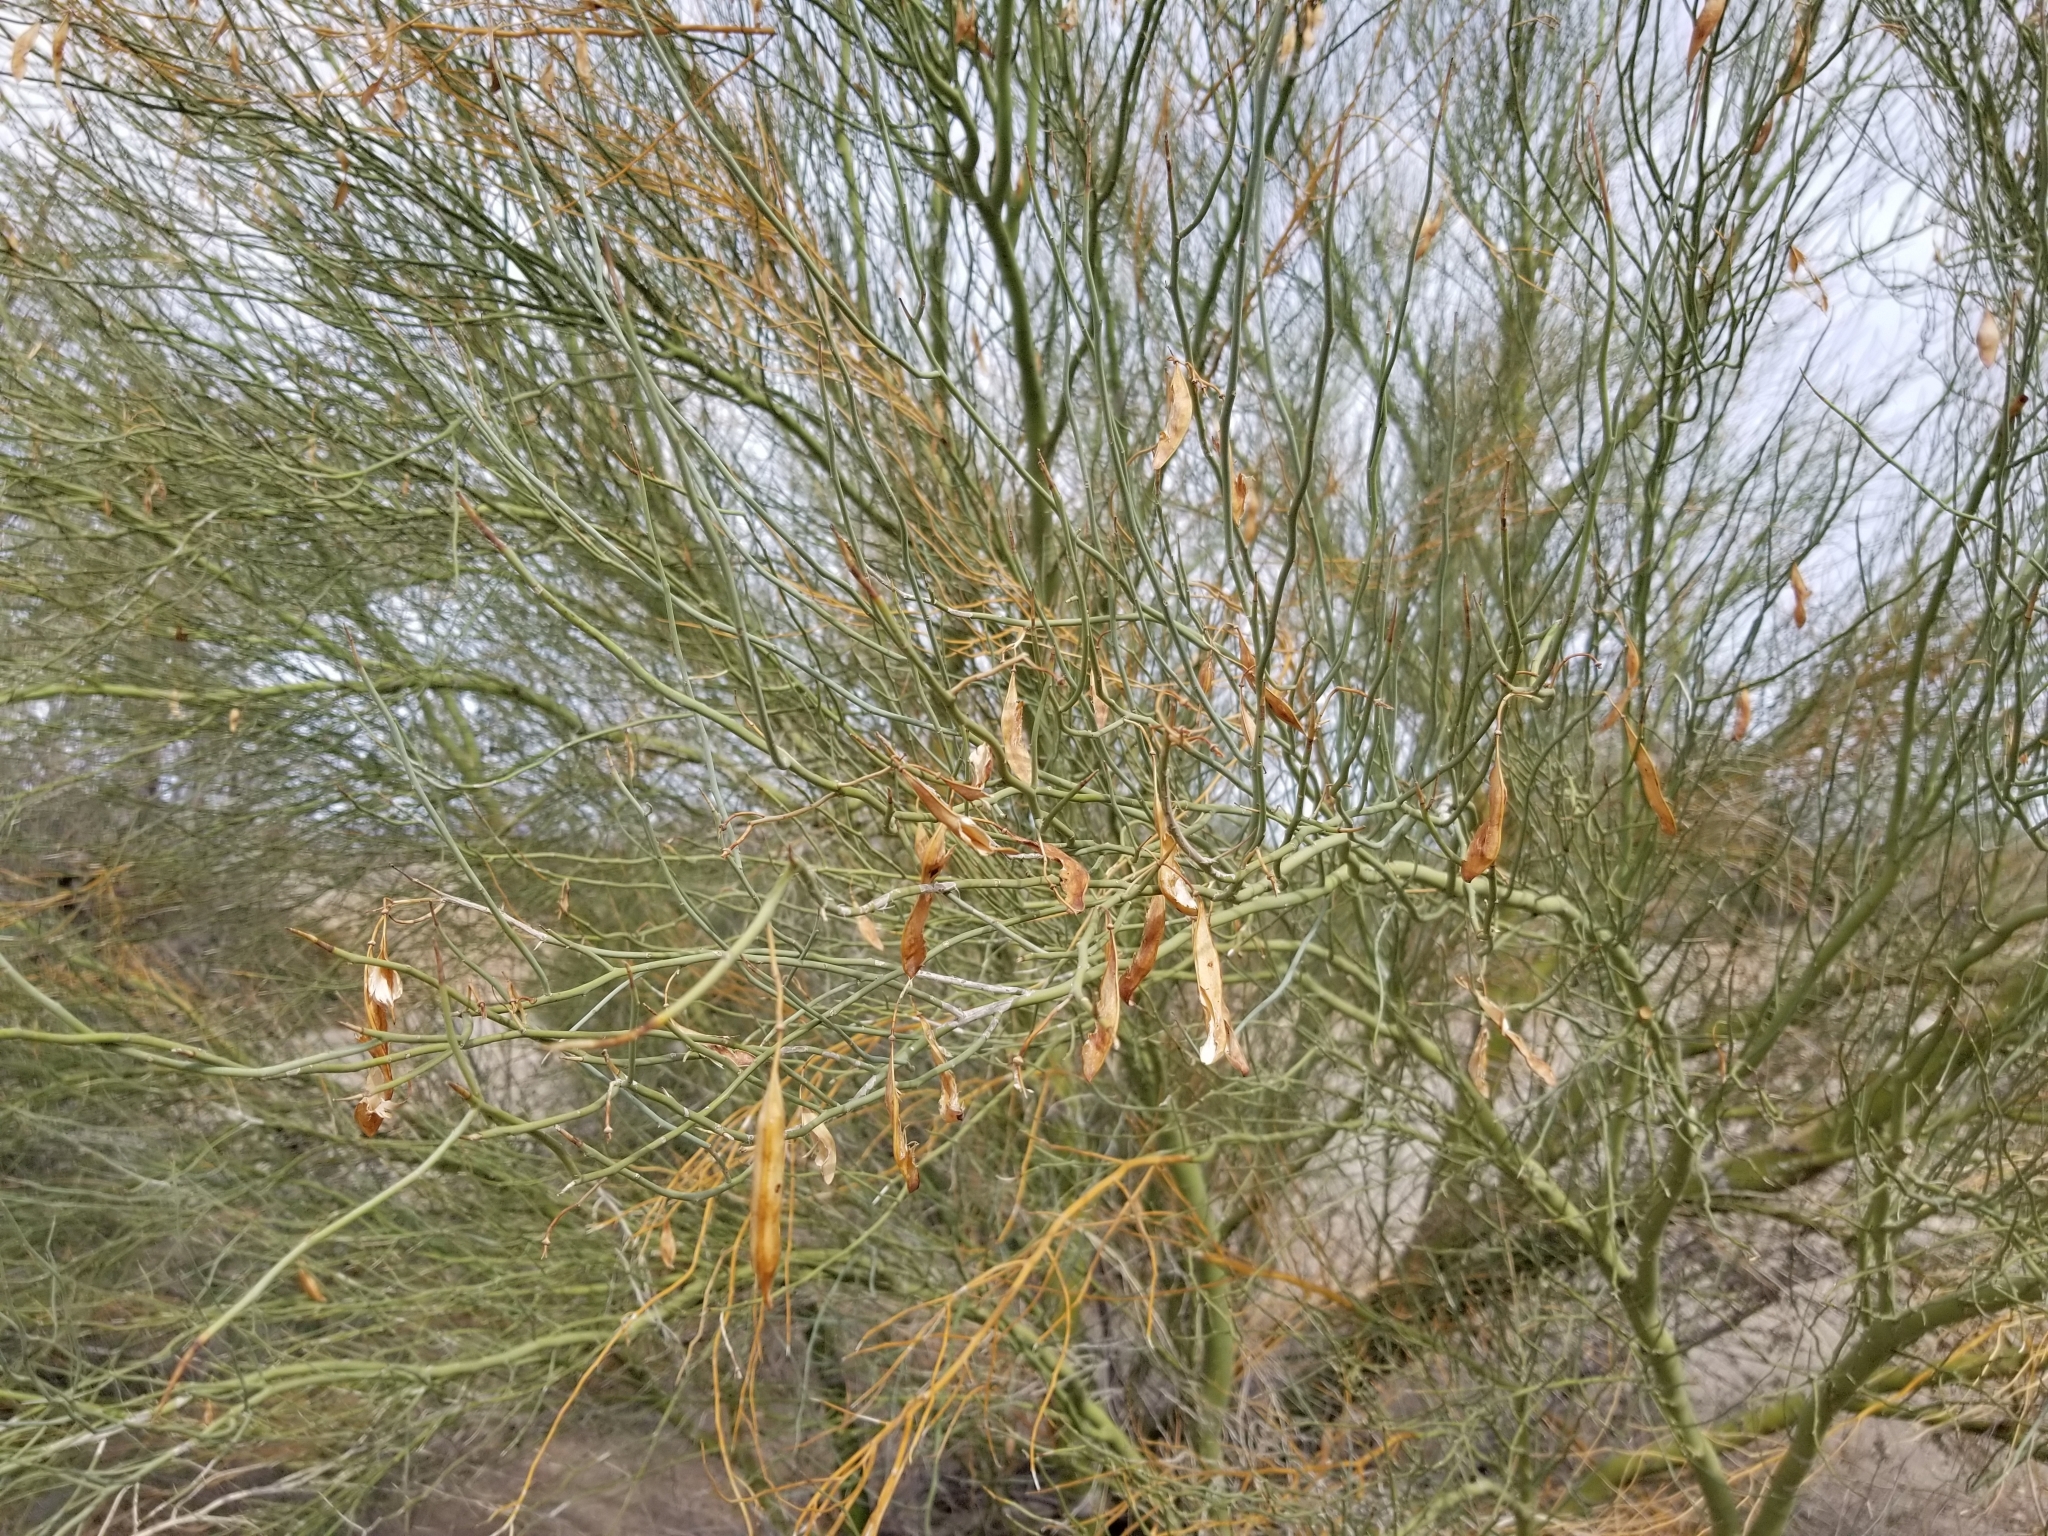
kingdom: Plantae
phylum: Tracheophyta
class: Magnoliopsida
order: Fabales
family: Fabaceae
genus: Parkinsonia
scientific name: Parkinsonia florida
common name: Blue paloverde
